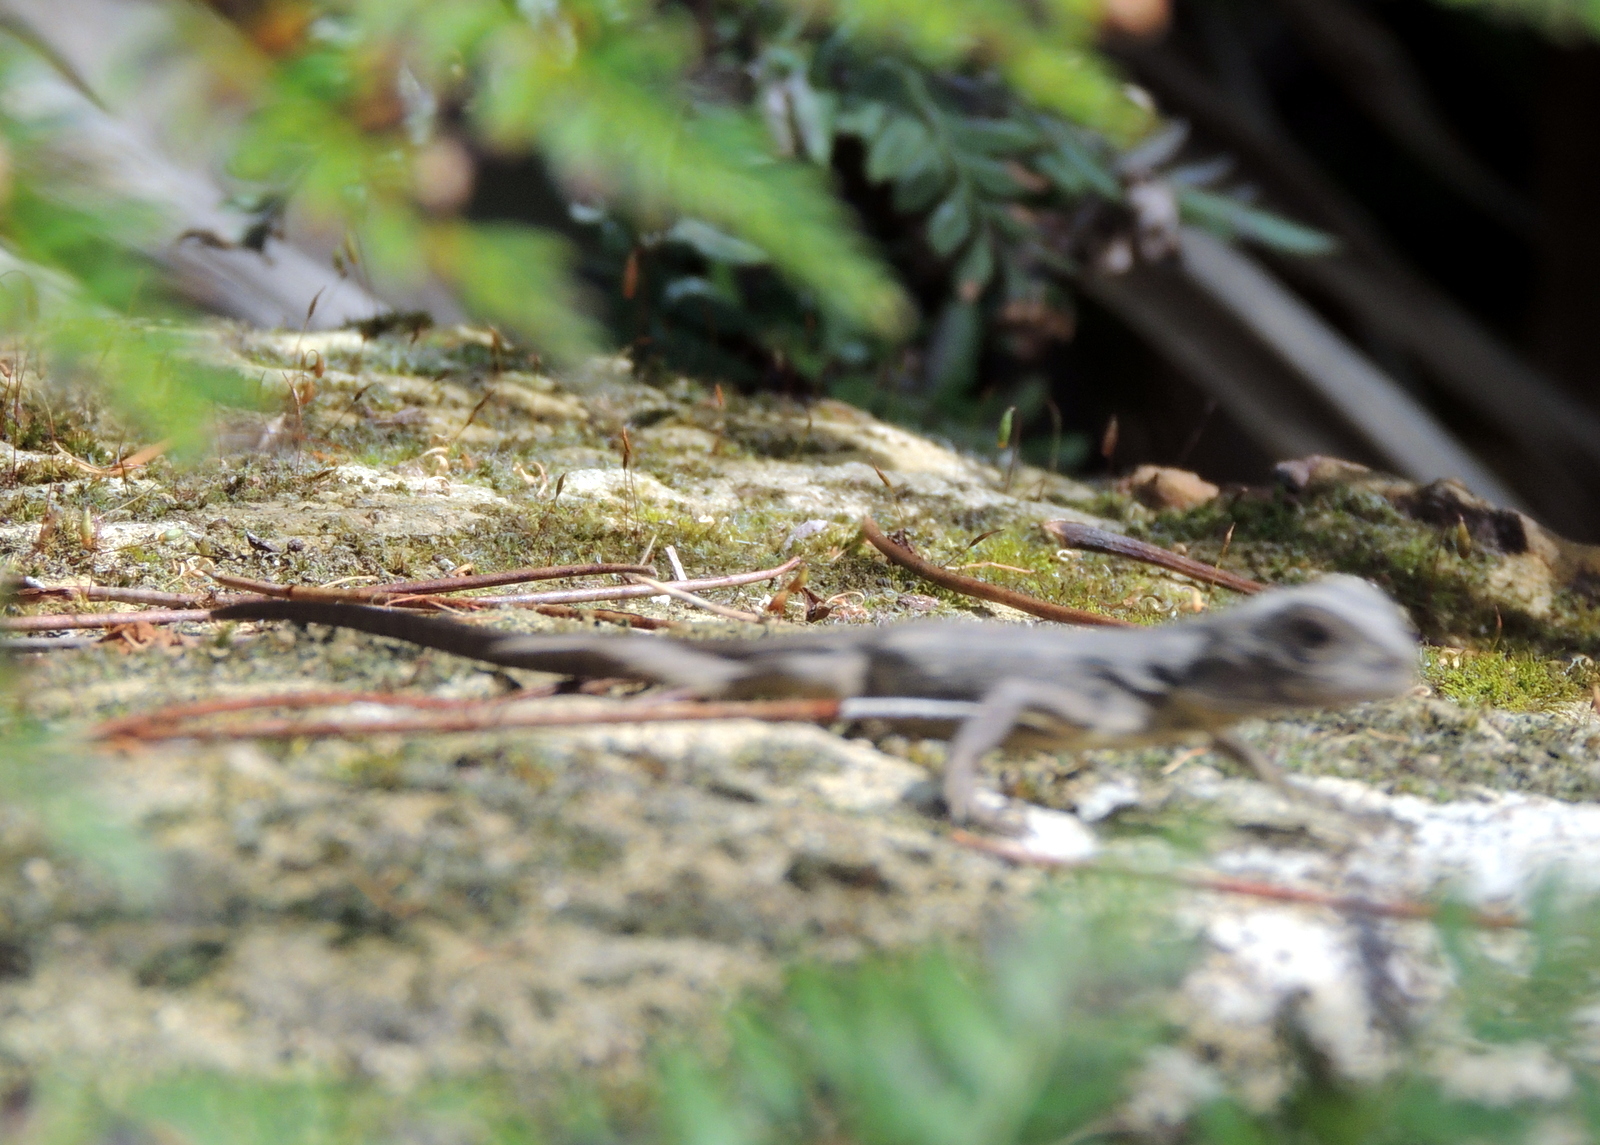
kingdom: Animalia
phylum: Chordata
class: Squamata
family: Agamidae
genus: Intellagama
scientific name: Intellagama lesueurii
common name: Eastern water dragon
